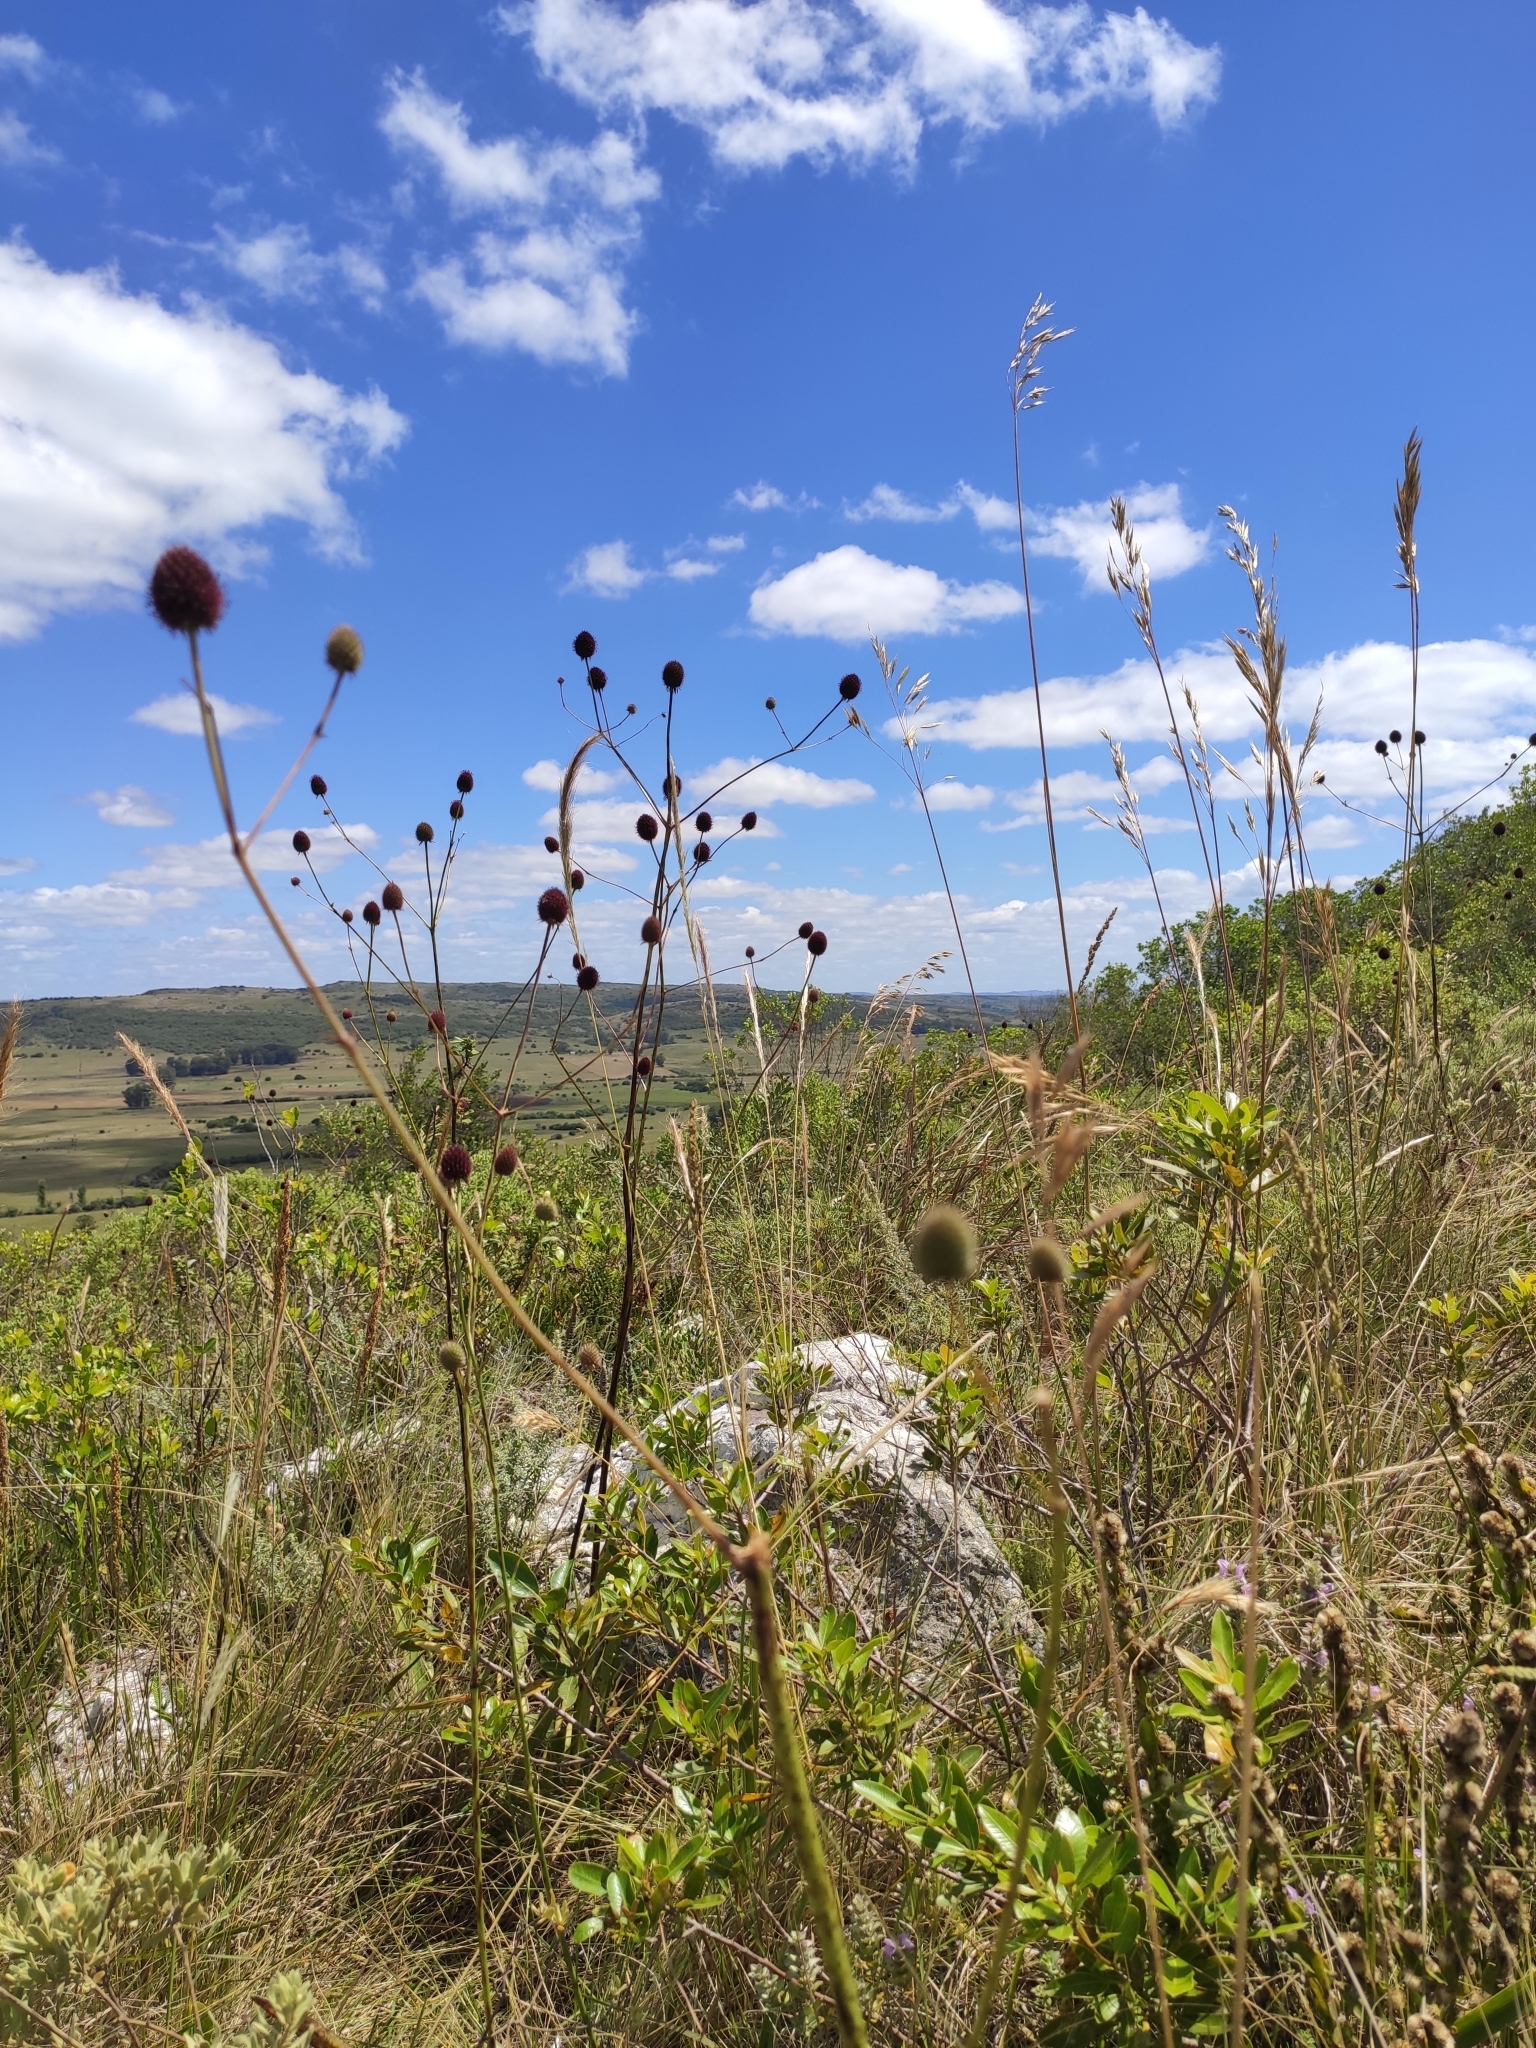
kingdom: Plantae
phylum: Tracheophyta
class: Magnoliopsida
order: Apiales
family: Apiaceae
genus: Eryngium
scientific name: Eryngium sanguisorba
